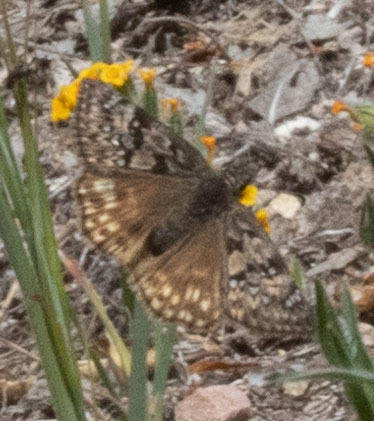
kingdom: Animalia
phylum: Arthropoda
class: Insecta
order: Lepidoptera
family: Hesperiidae
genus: Erynnis
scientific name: Erynnis propertius
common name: Propertius duskywing
